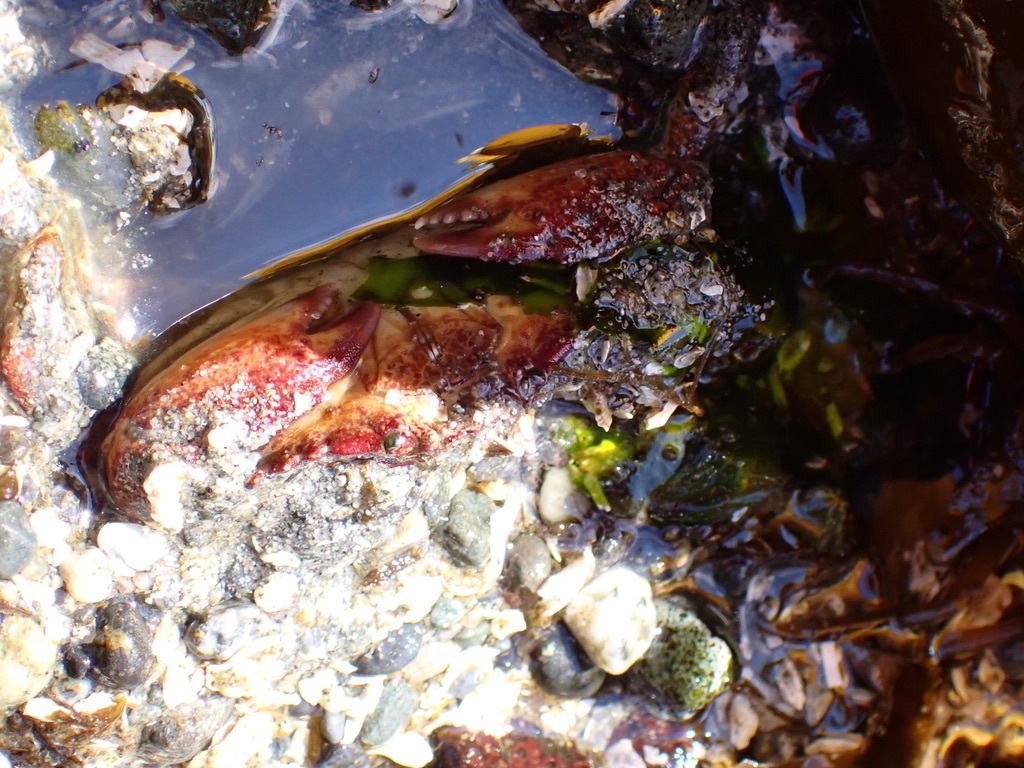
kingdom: Animalia
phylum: Arthropoda
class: Malacostraca
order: Decapoda
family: Cancridae
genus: Cancer
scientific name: Cancer productus
